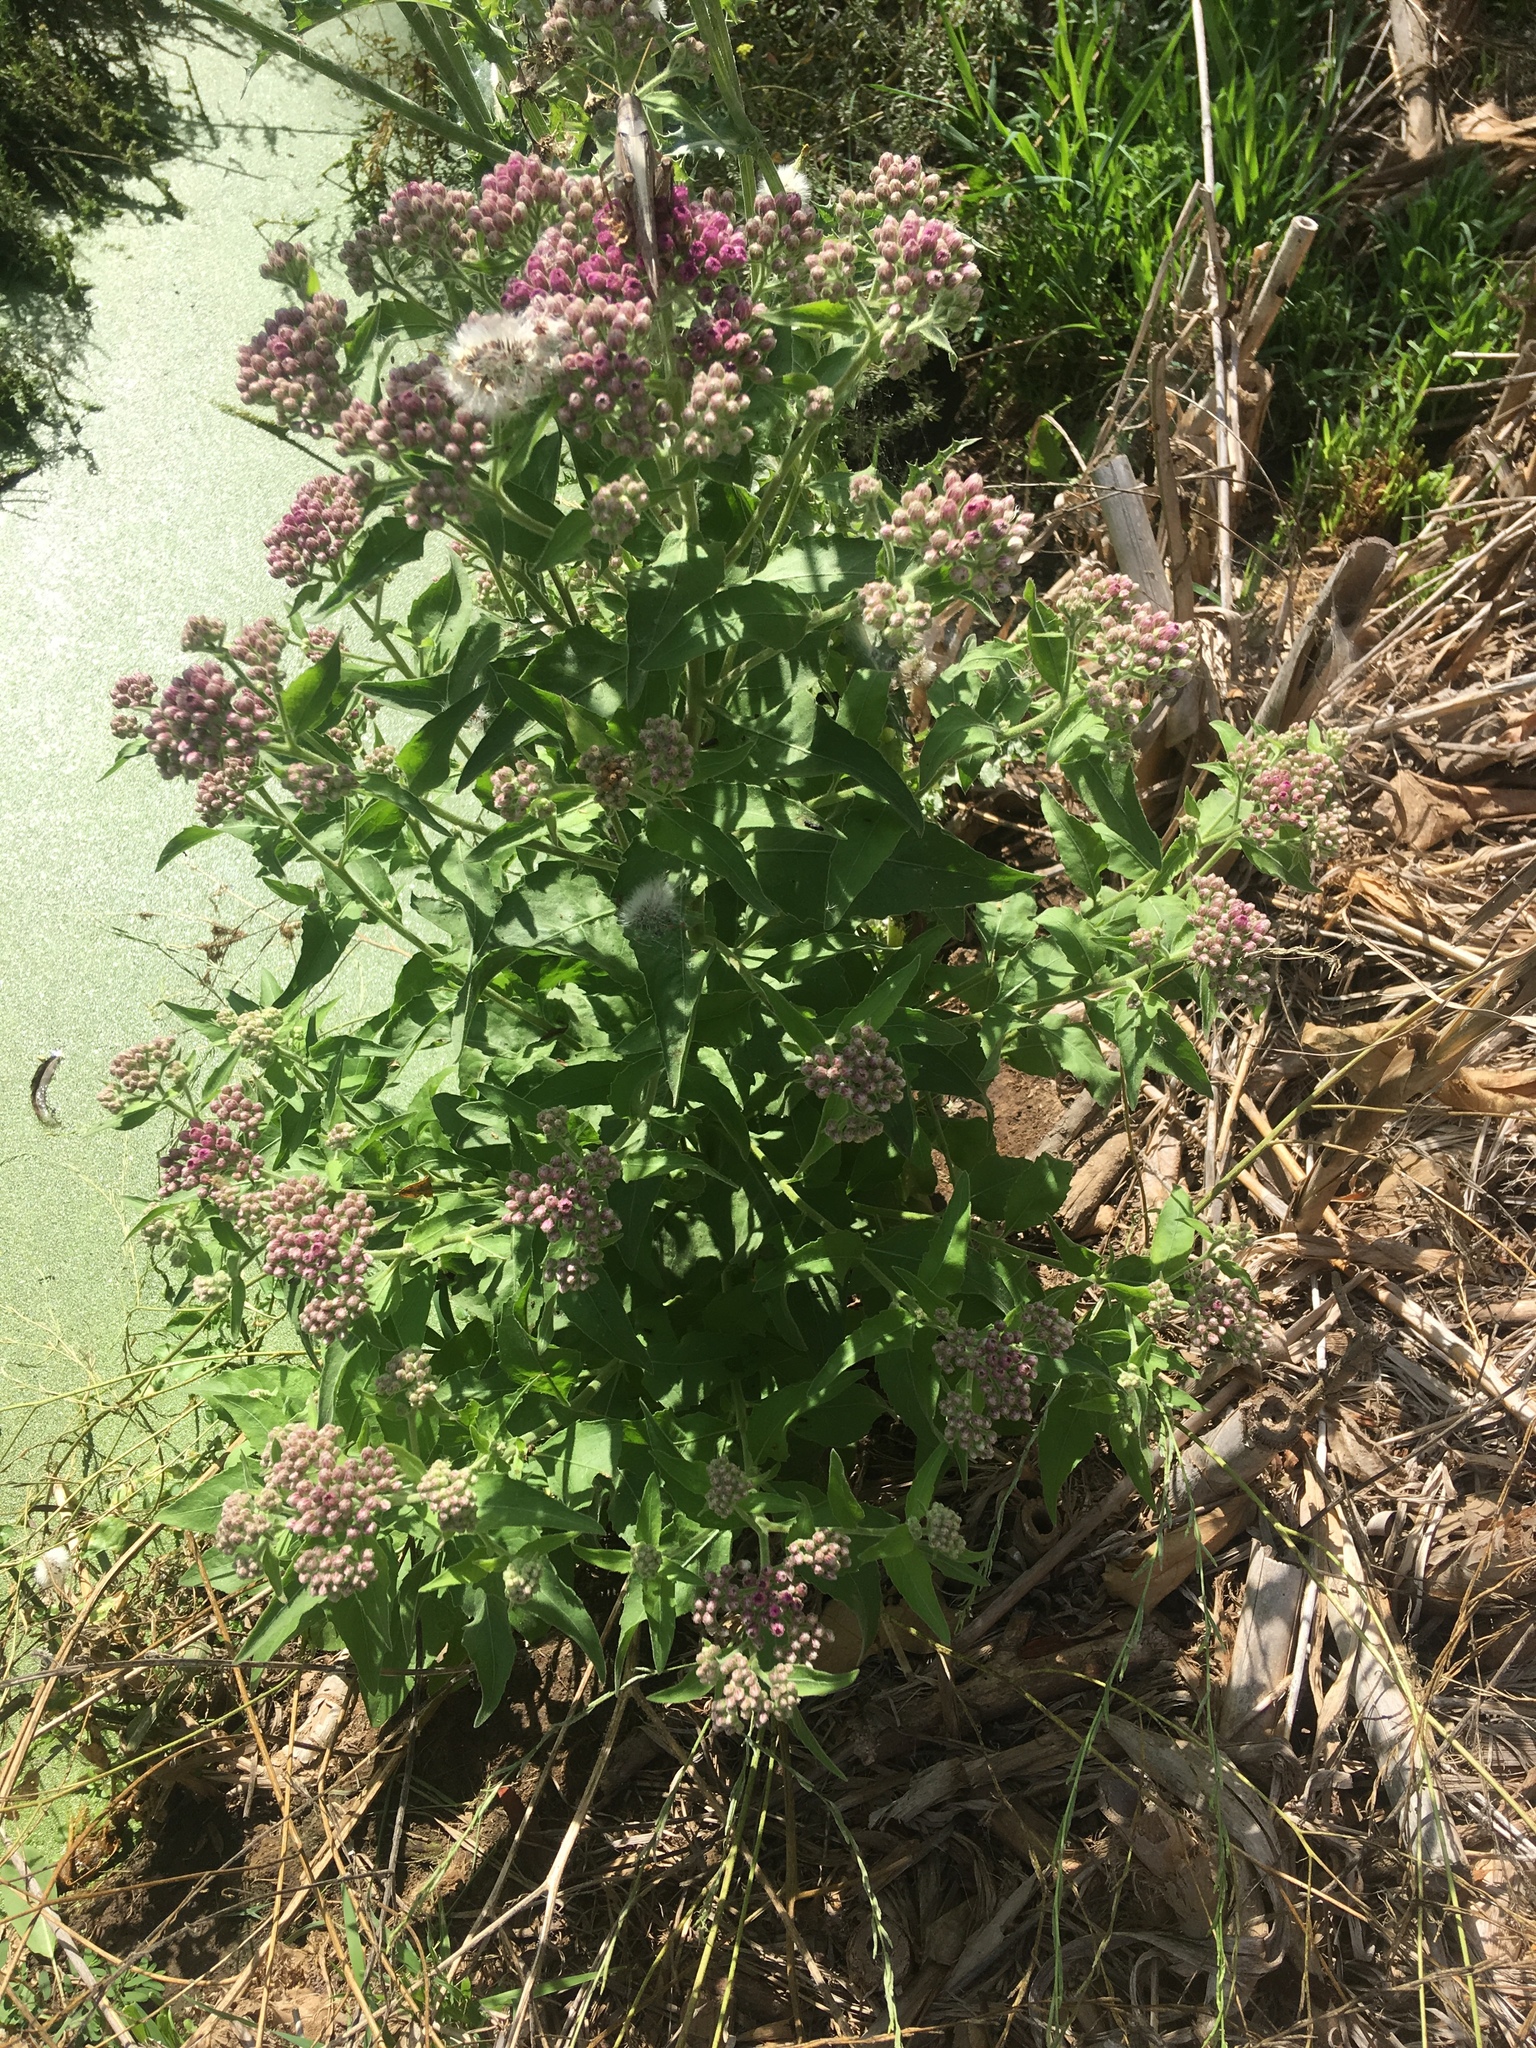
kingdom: Plantae
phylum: Tracheophyta
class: Magnoliopsida
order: Asterales
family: Asteraceae
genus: Pluchea
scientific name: Pluchea odorata
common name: Saltmarsh fleabane
